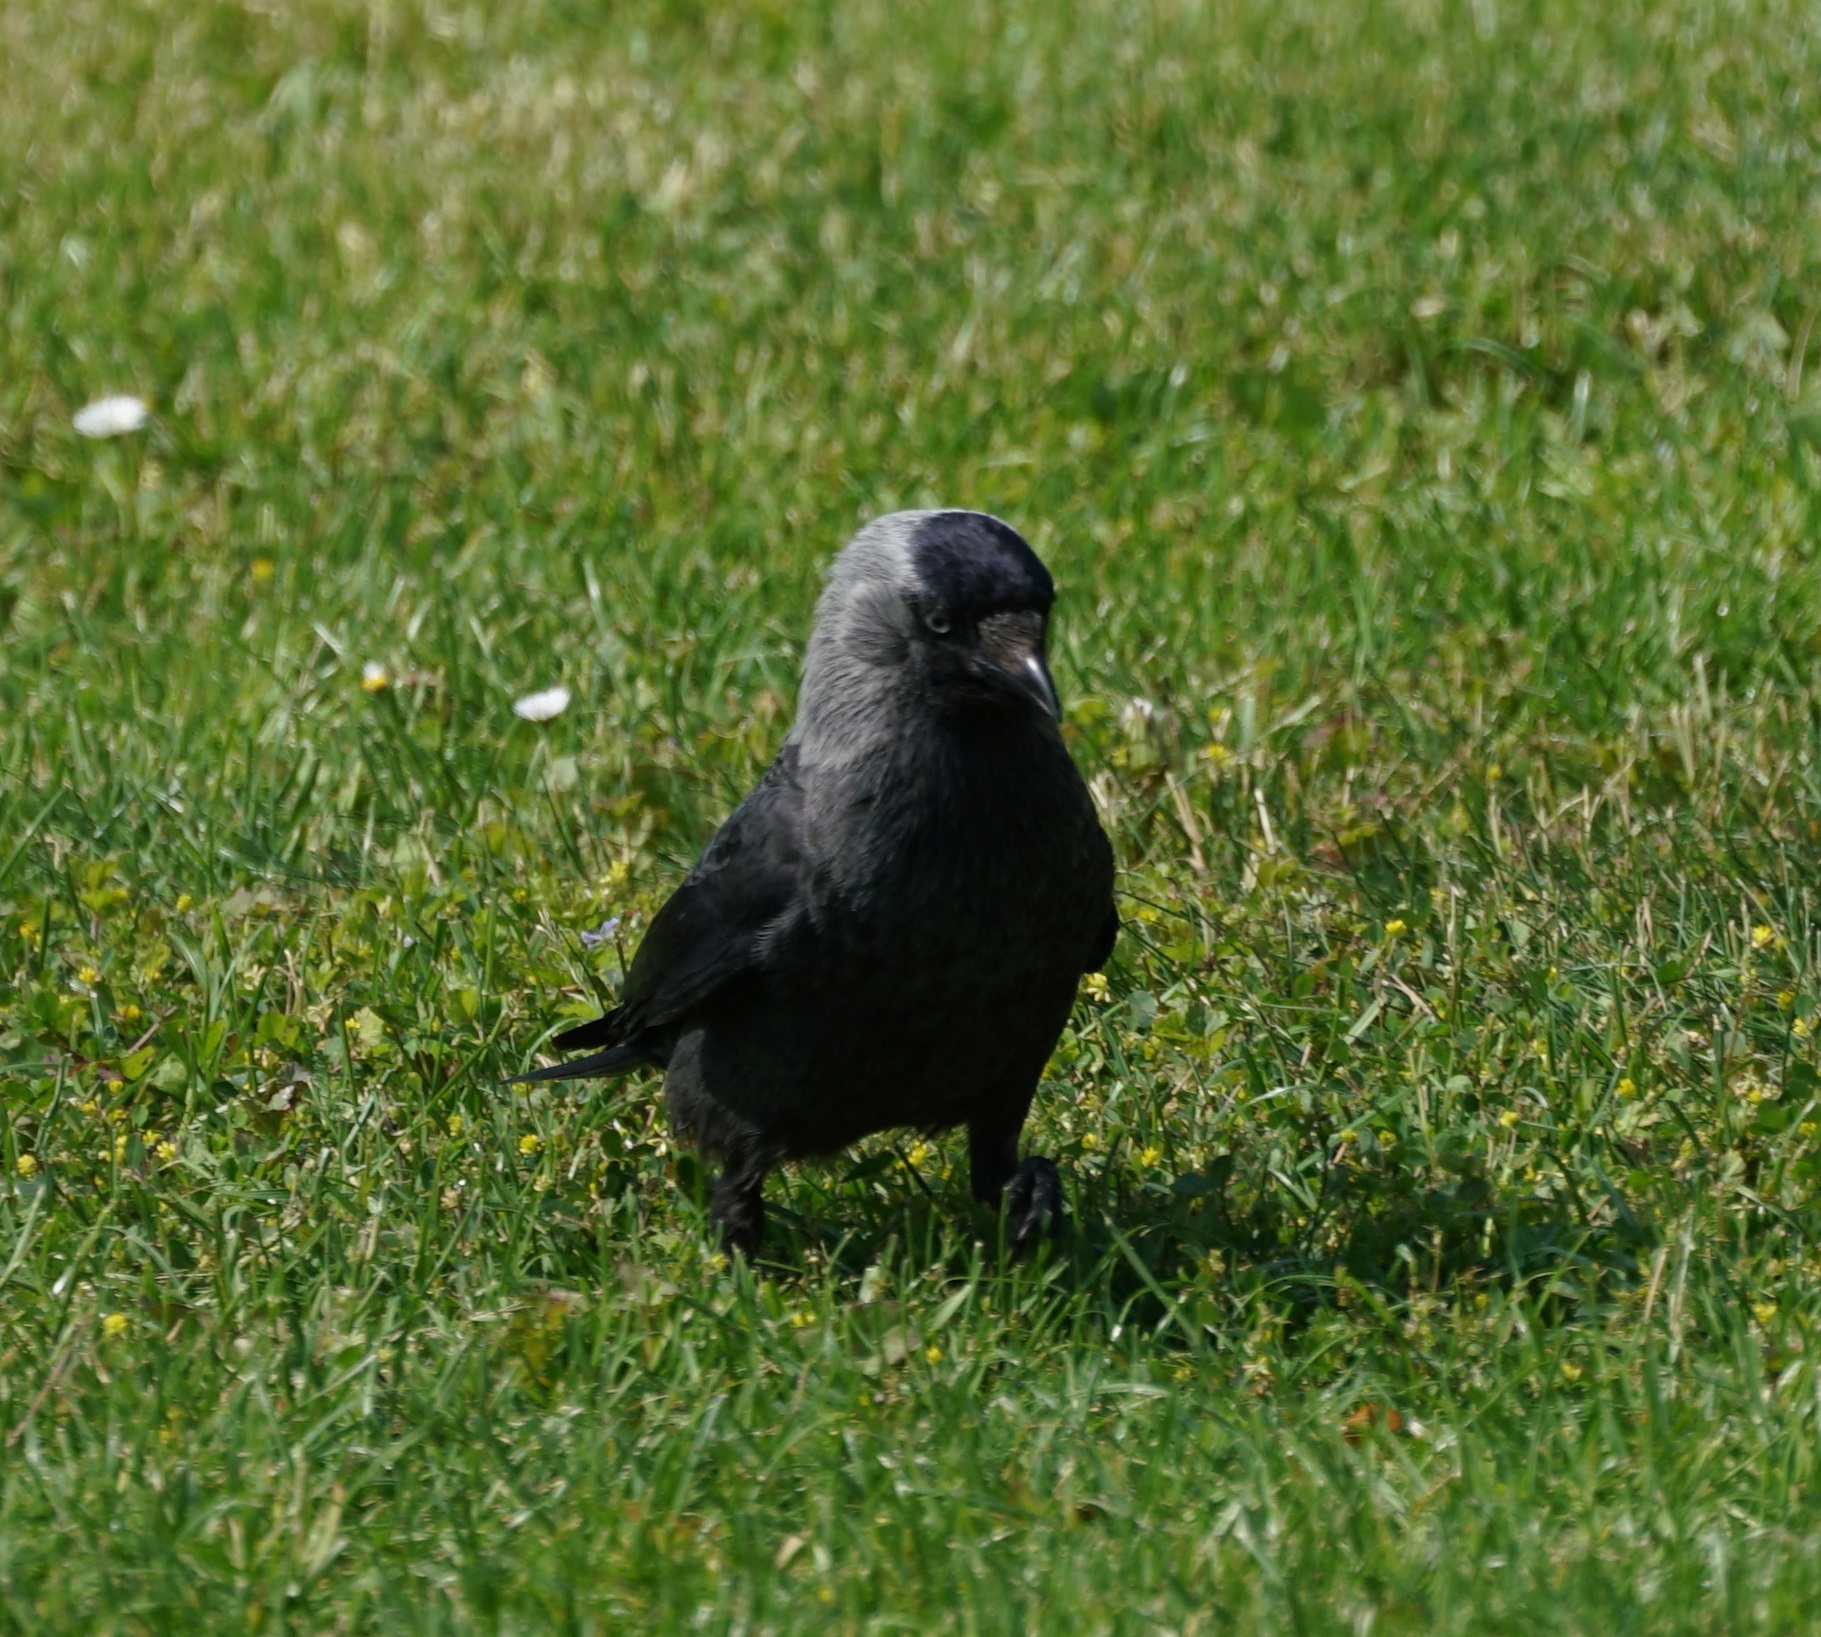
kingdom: Animalia
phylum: Chordata
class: Aves
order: Passeriformes
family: Corvidae
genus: Coloeus
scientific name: Coloeus monedula
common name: Western jackdaw
